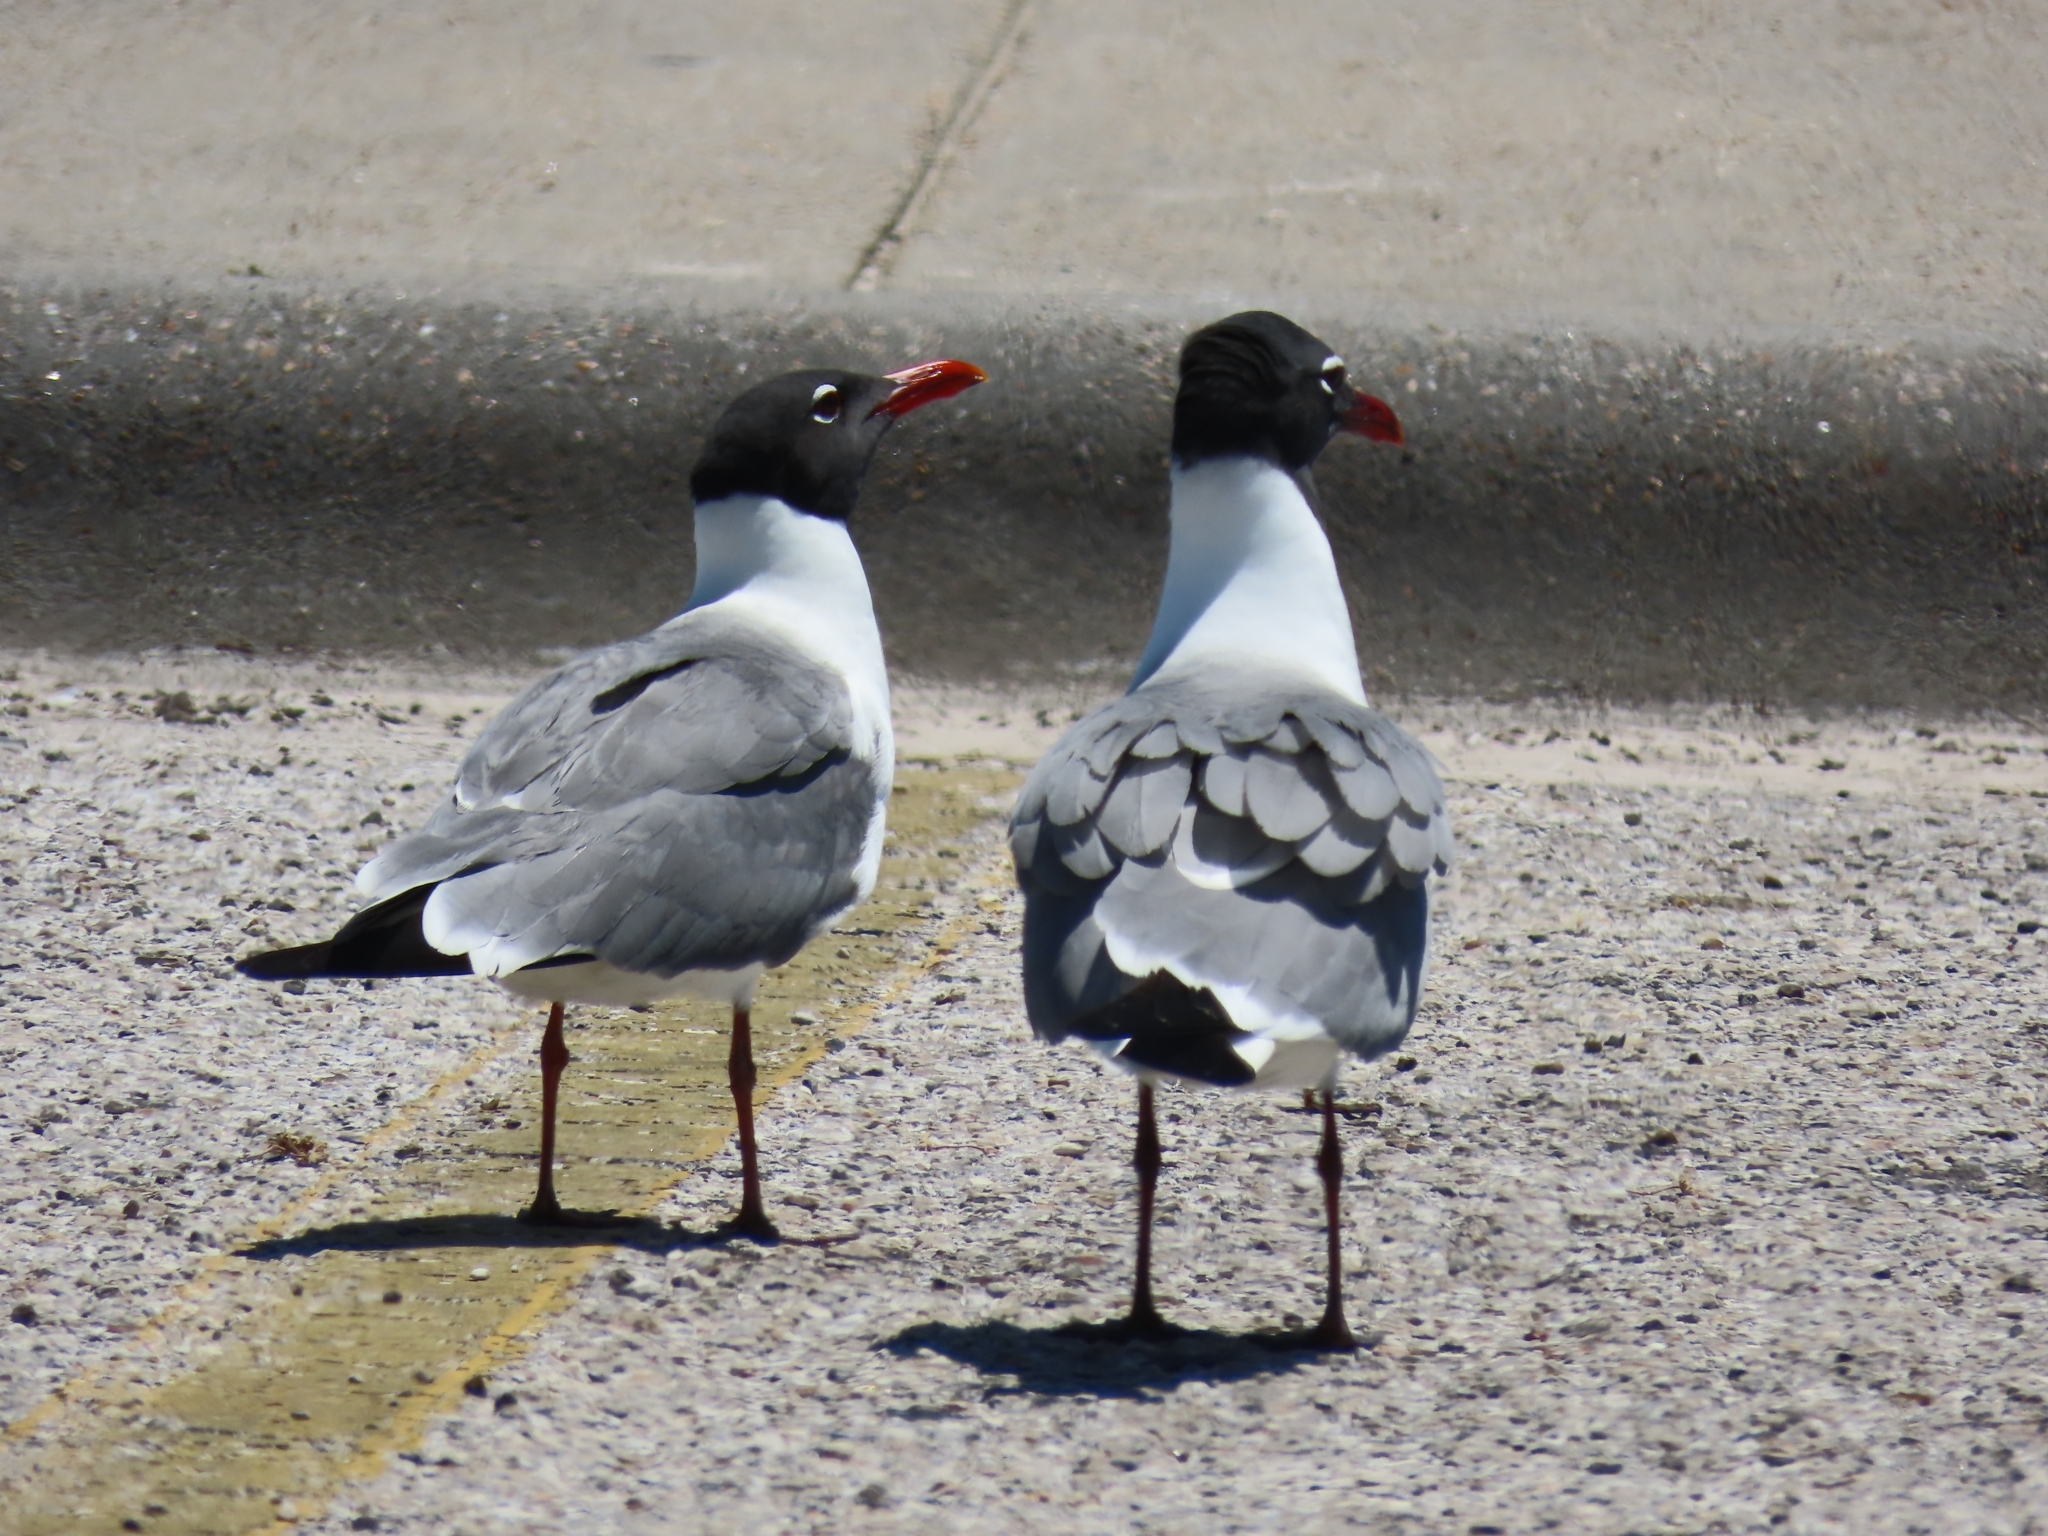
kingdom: Animalia
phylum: Chordata
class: Aves
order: Charadriiformes
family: Laridae
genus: Leucophaeus
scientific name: Leucophaeus atricilla
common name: Laughing gull
